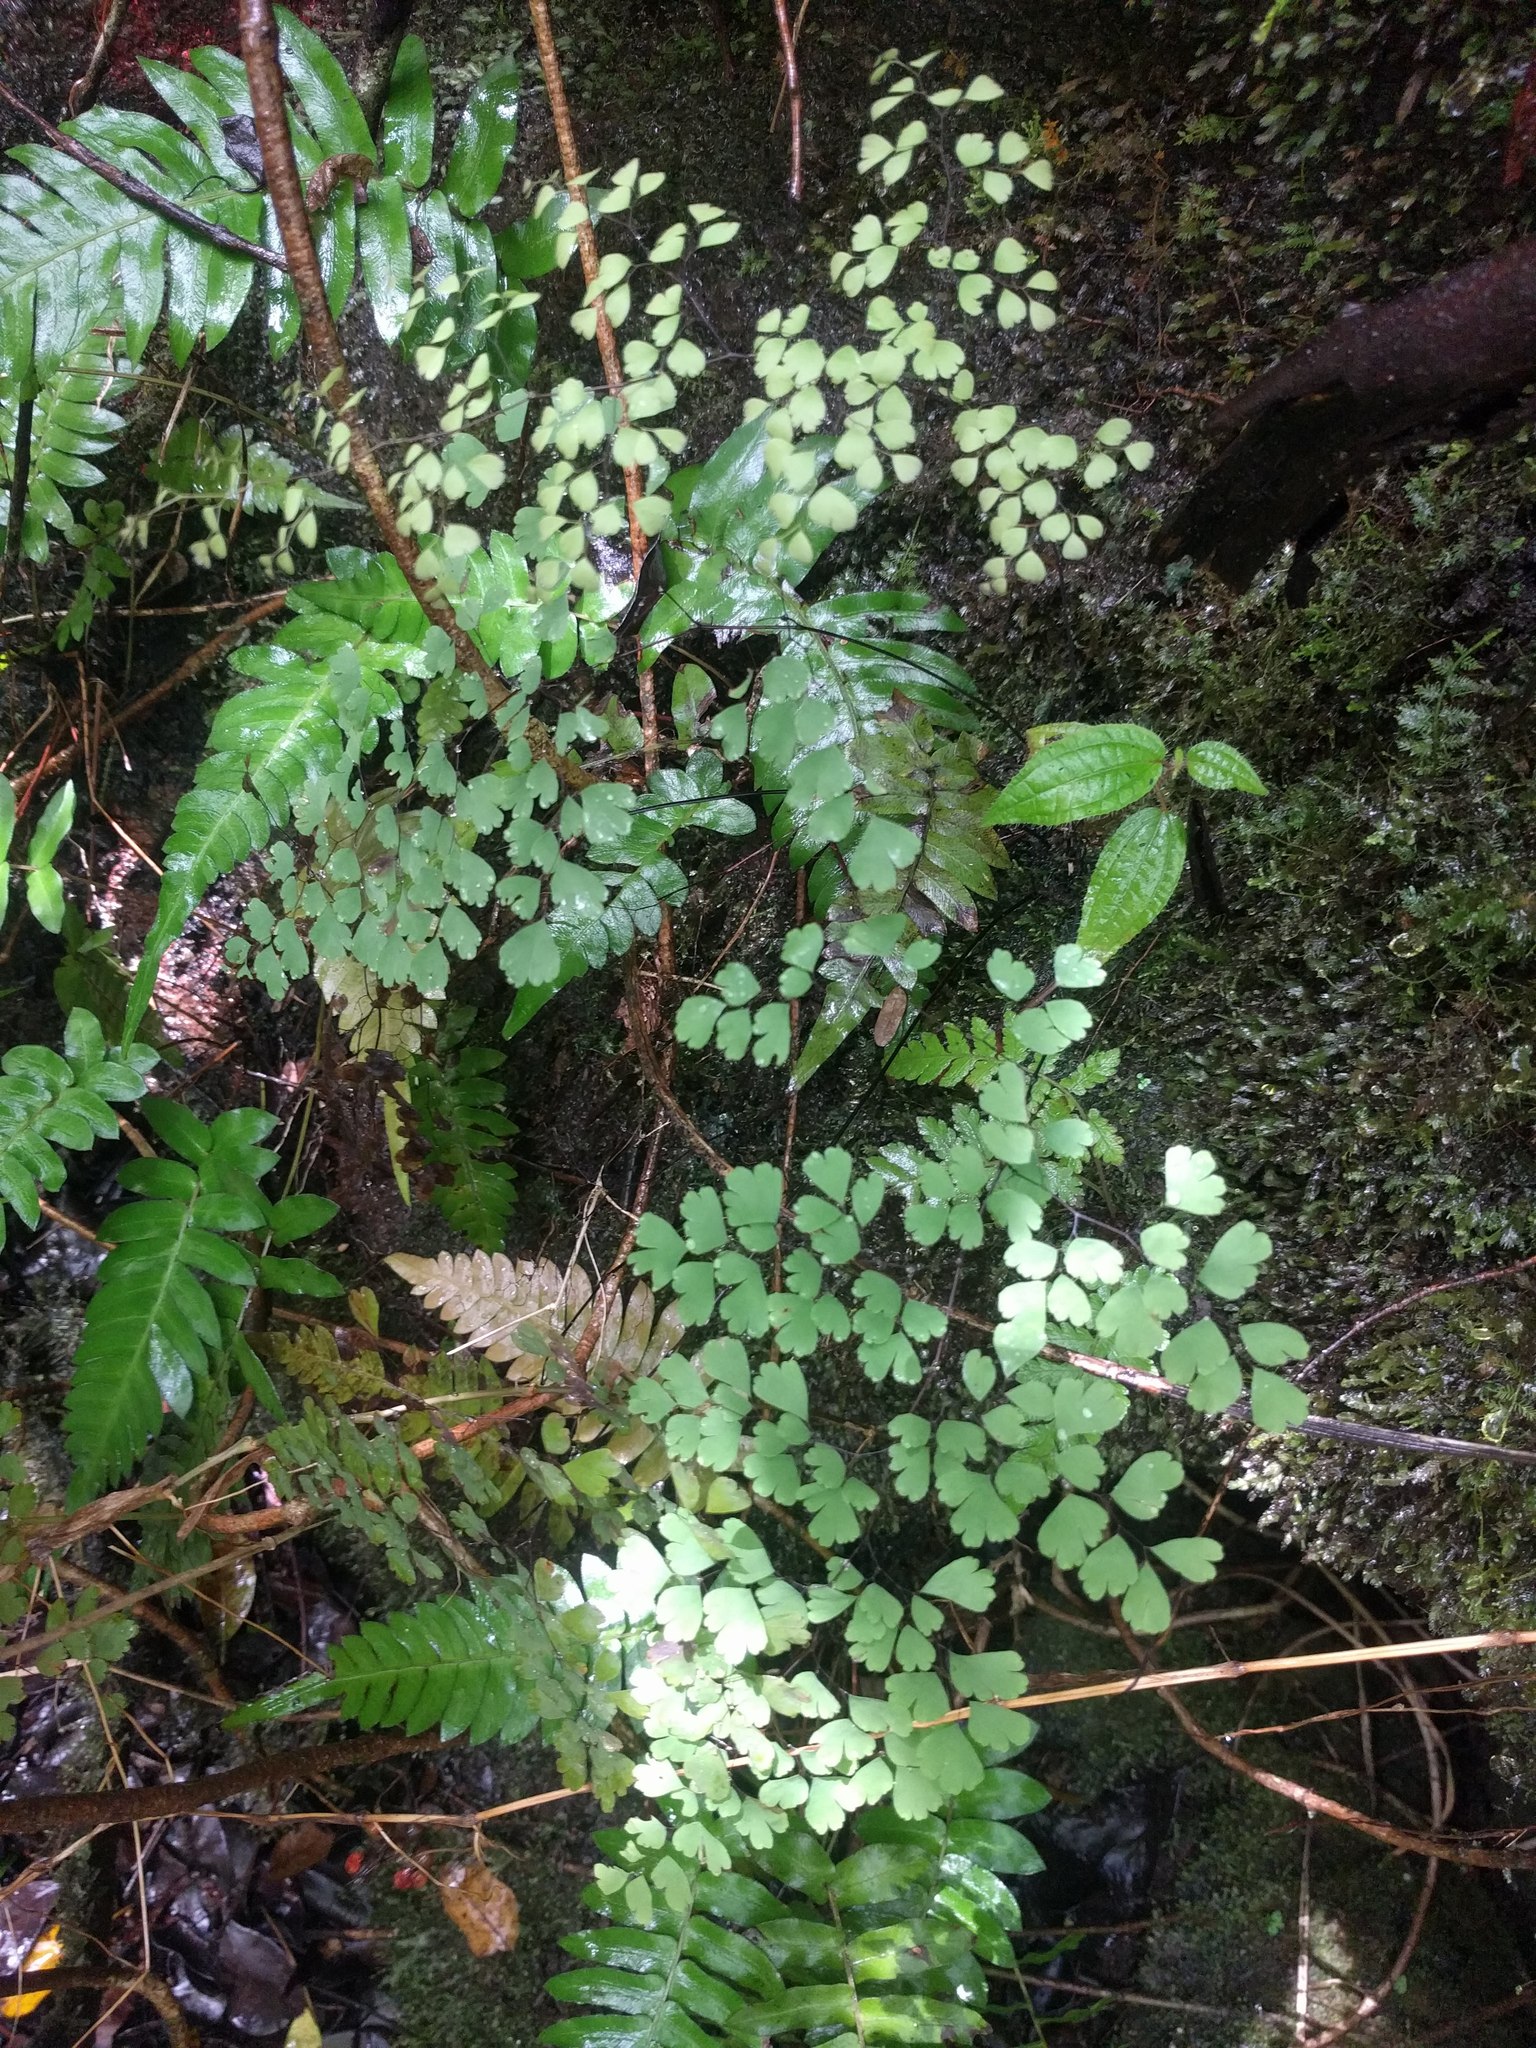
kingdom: Plantae
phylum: Tracheophyta
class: Polypodiopsida
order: Polypodiales
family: Pteridaceae
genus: Adiantum
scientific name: Adiantum raddianum
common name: Delta maidenhair fern
